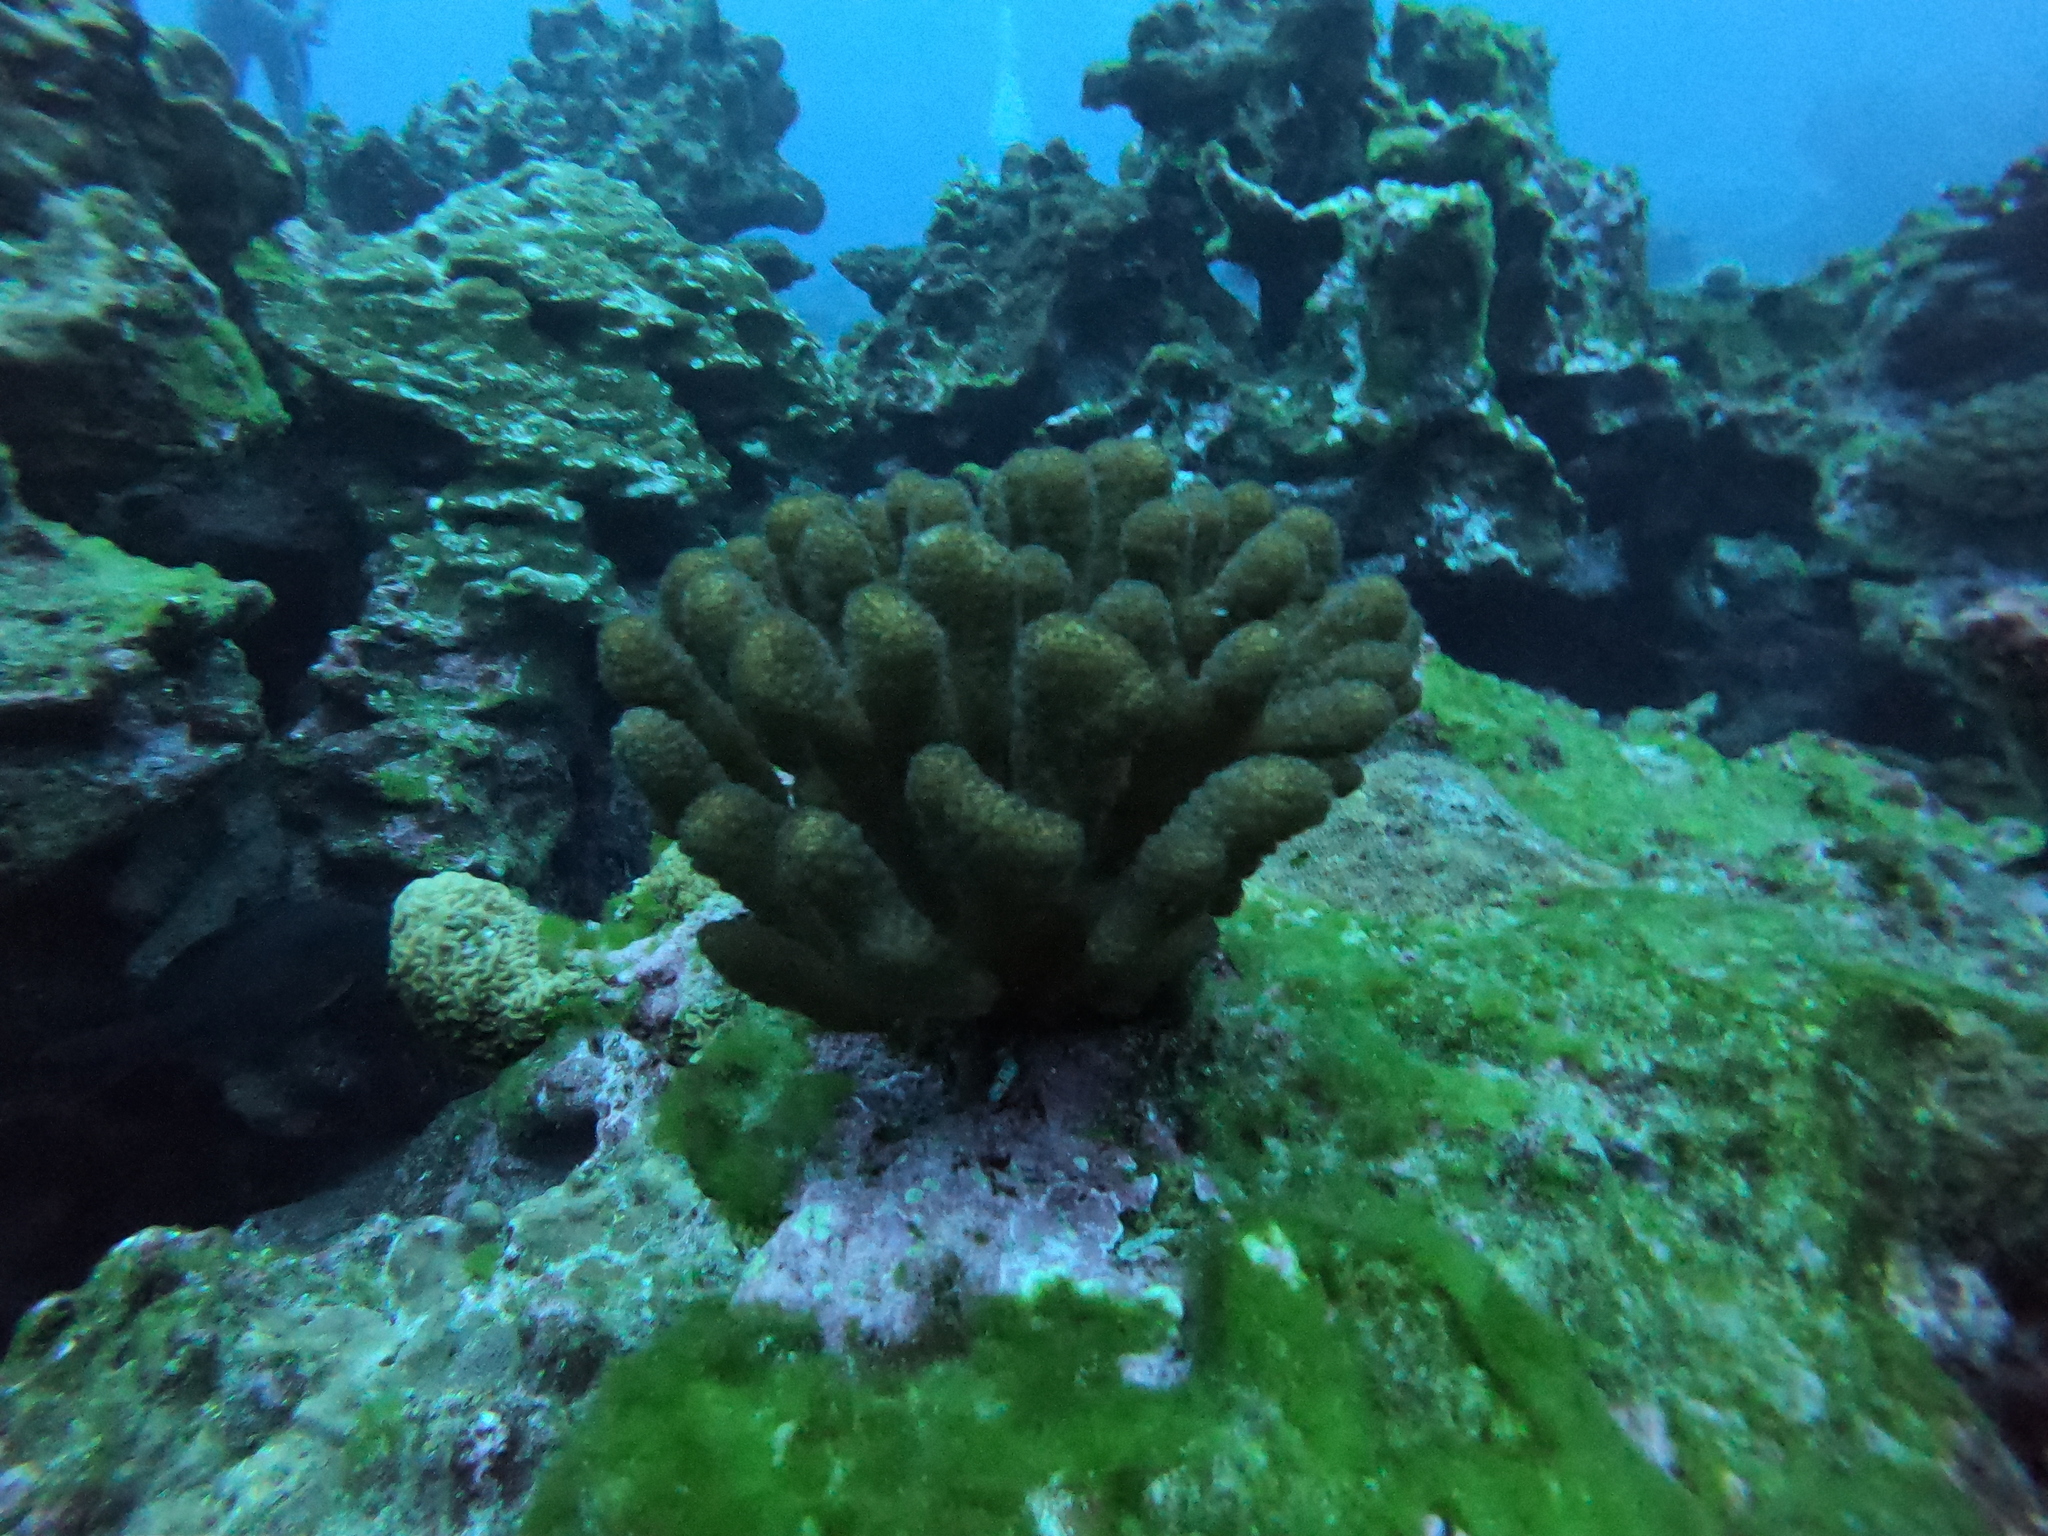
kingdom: Animalia
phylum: Cnidaria
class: Anthozoa
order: Scleractinia
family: Pocilloporidae
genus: Pocillopora
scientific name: Pocillopora verrucosa
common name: Cauliflower coral
